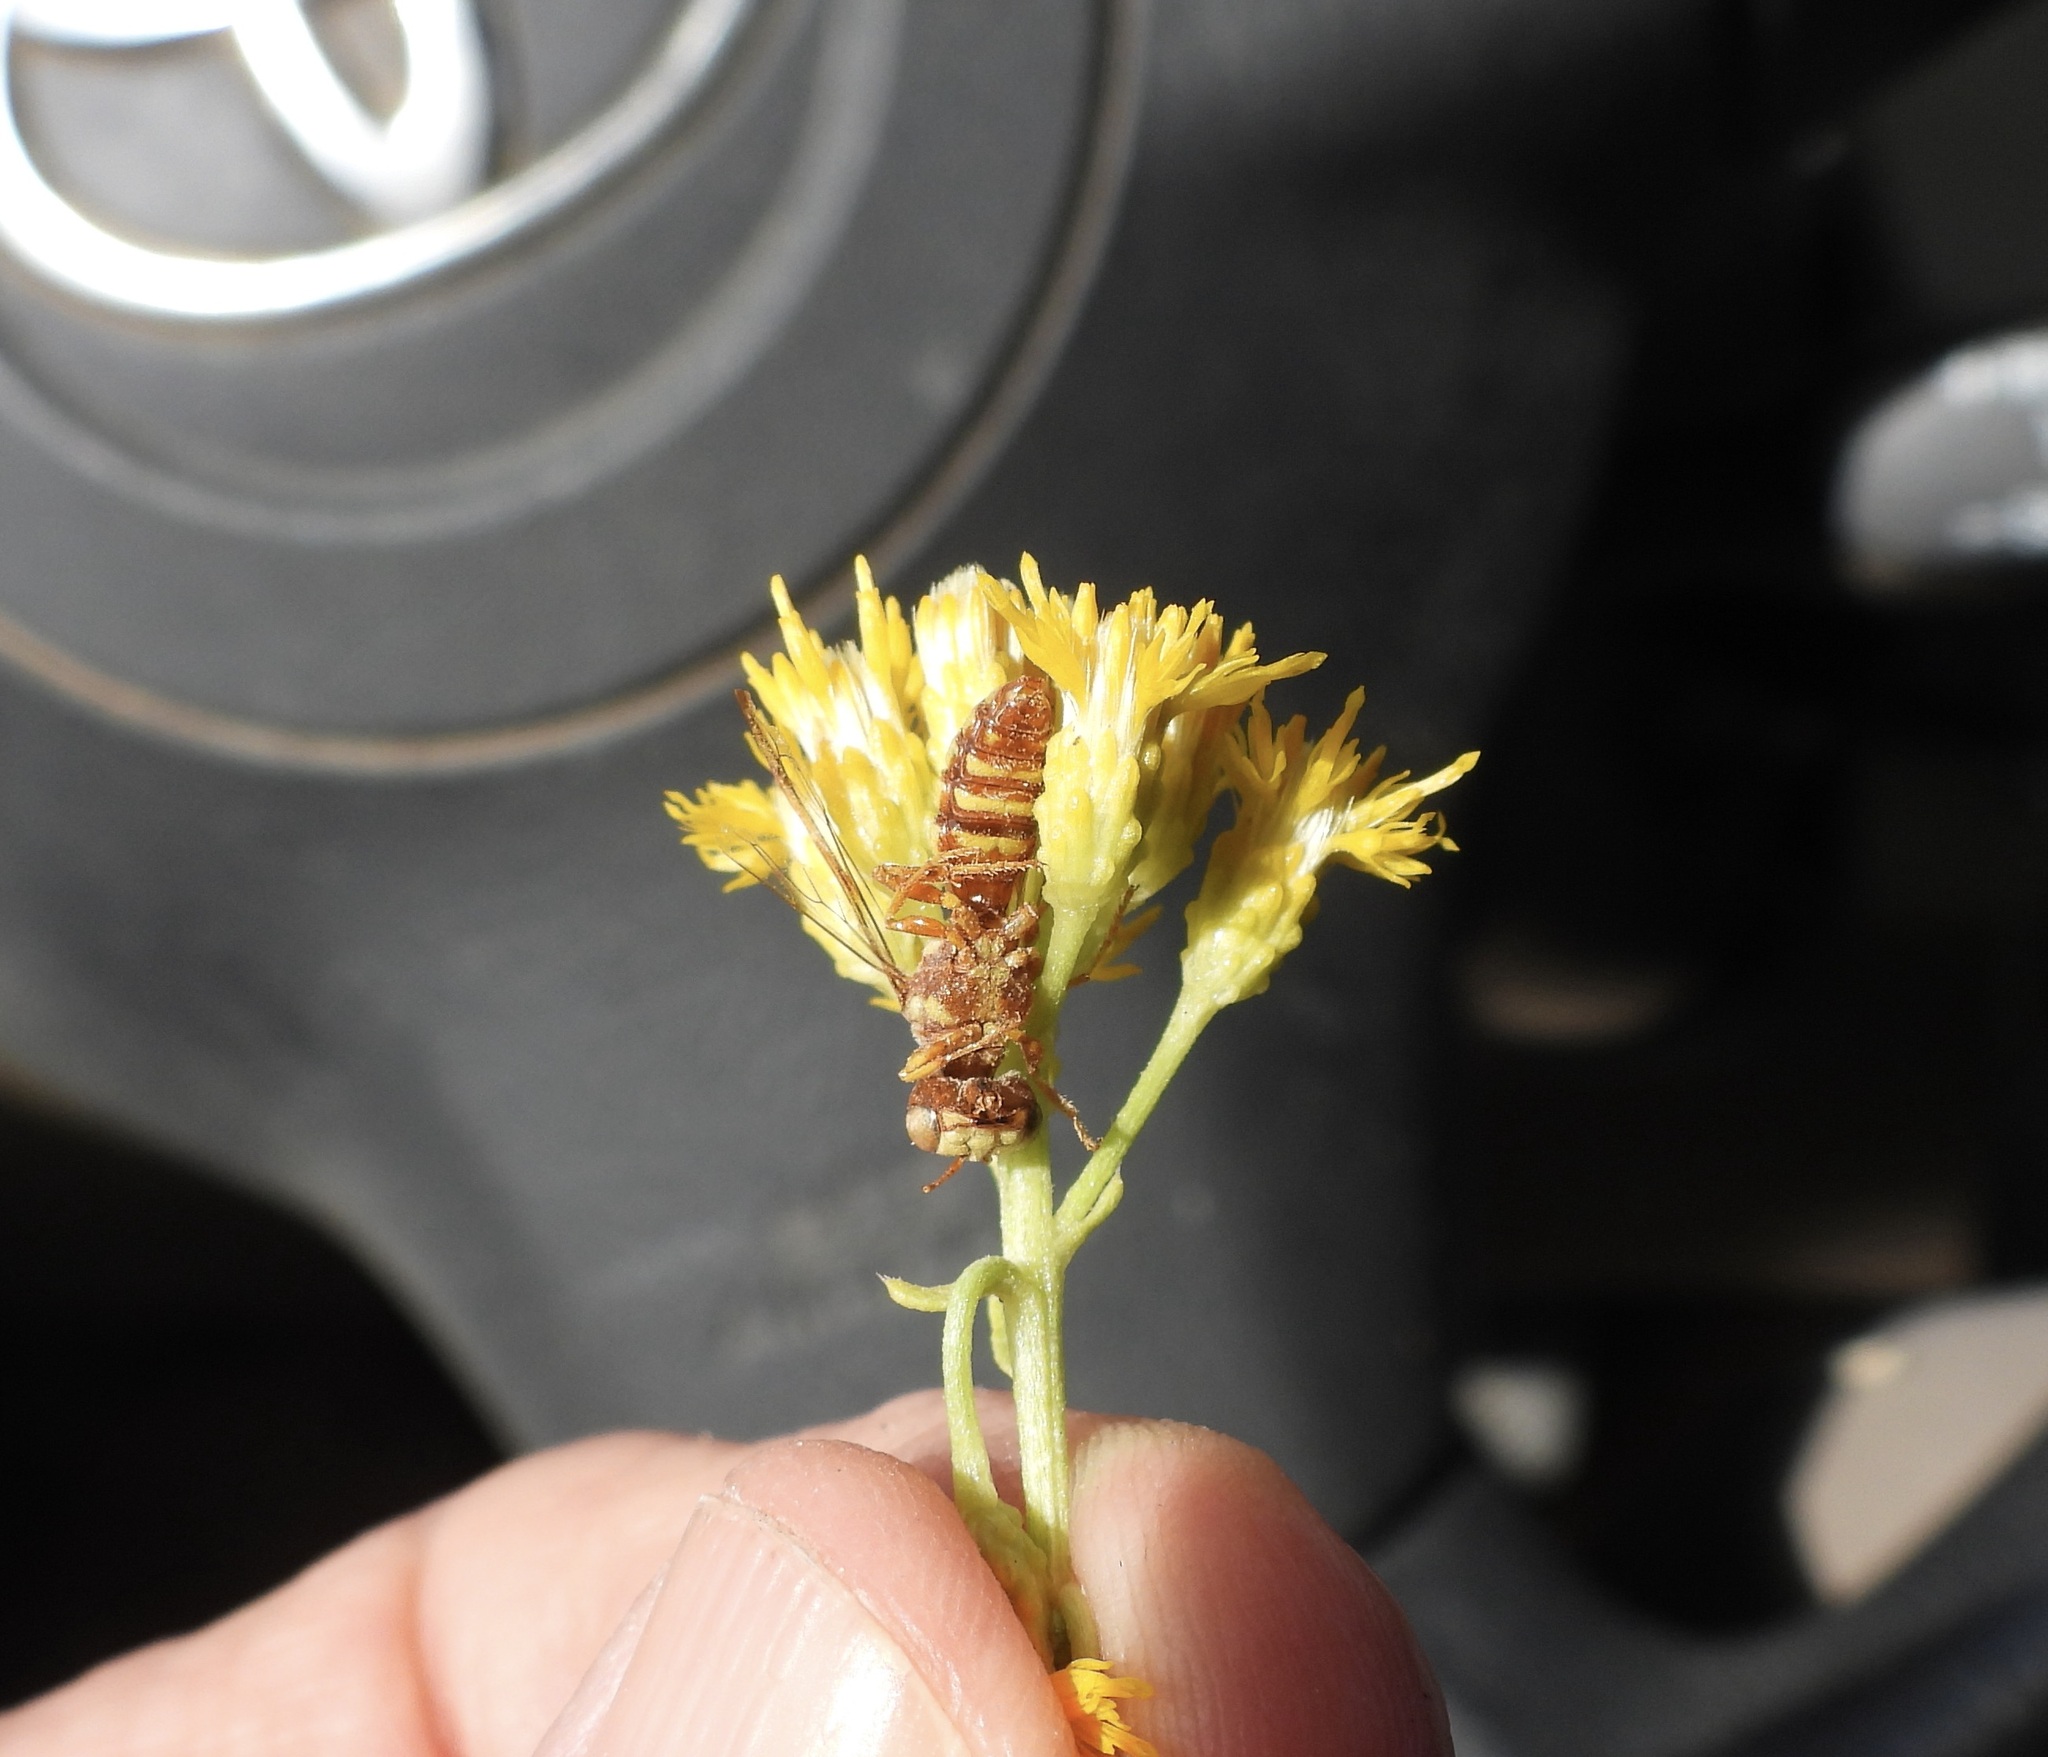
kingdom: Animalia
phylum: Arthropoda
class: Insecta
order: Hymenoptera
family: Crabronidae
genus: Eucerceris
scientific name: Eucerceris canaliculata
